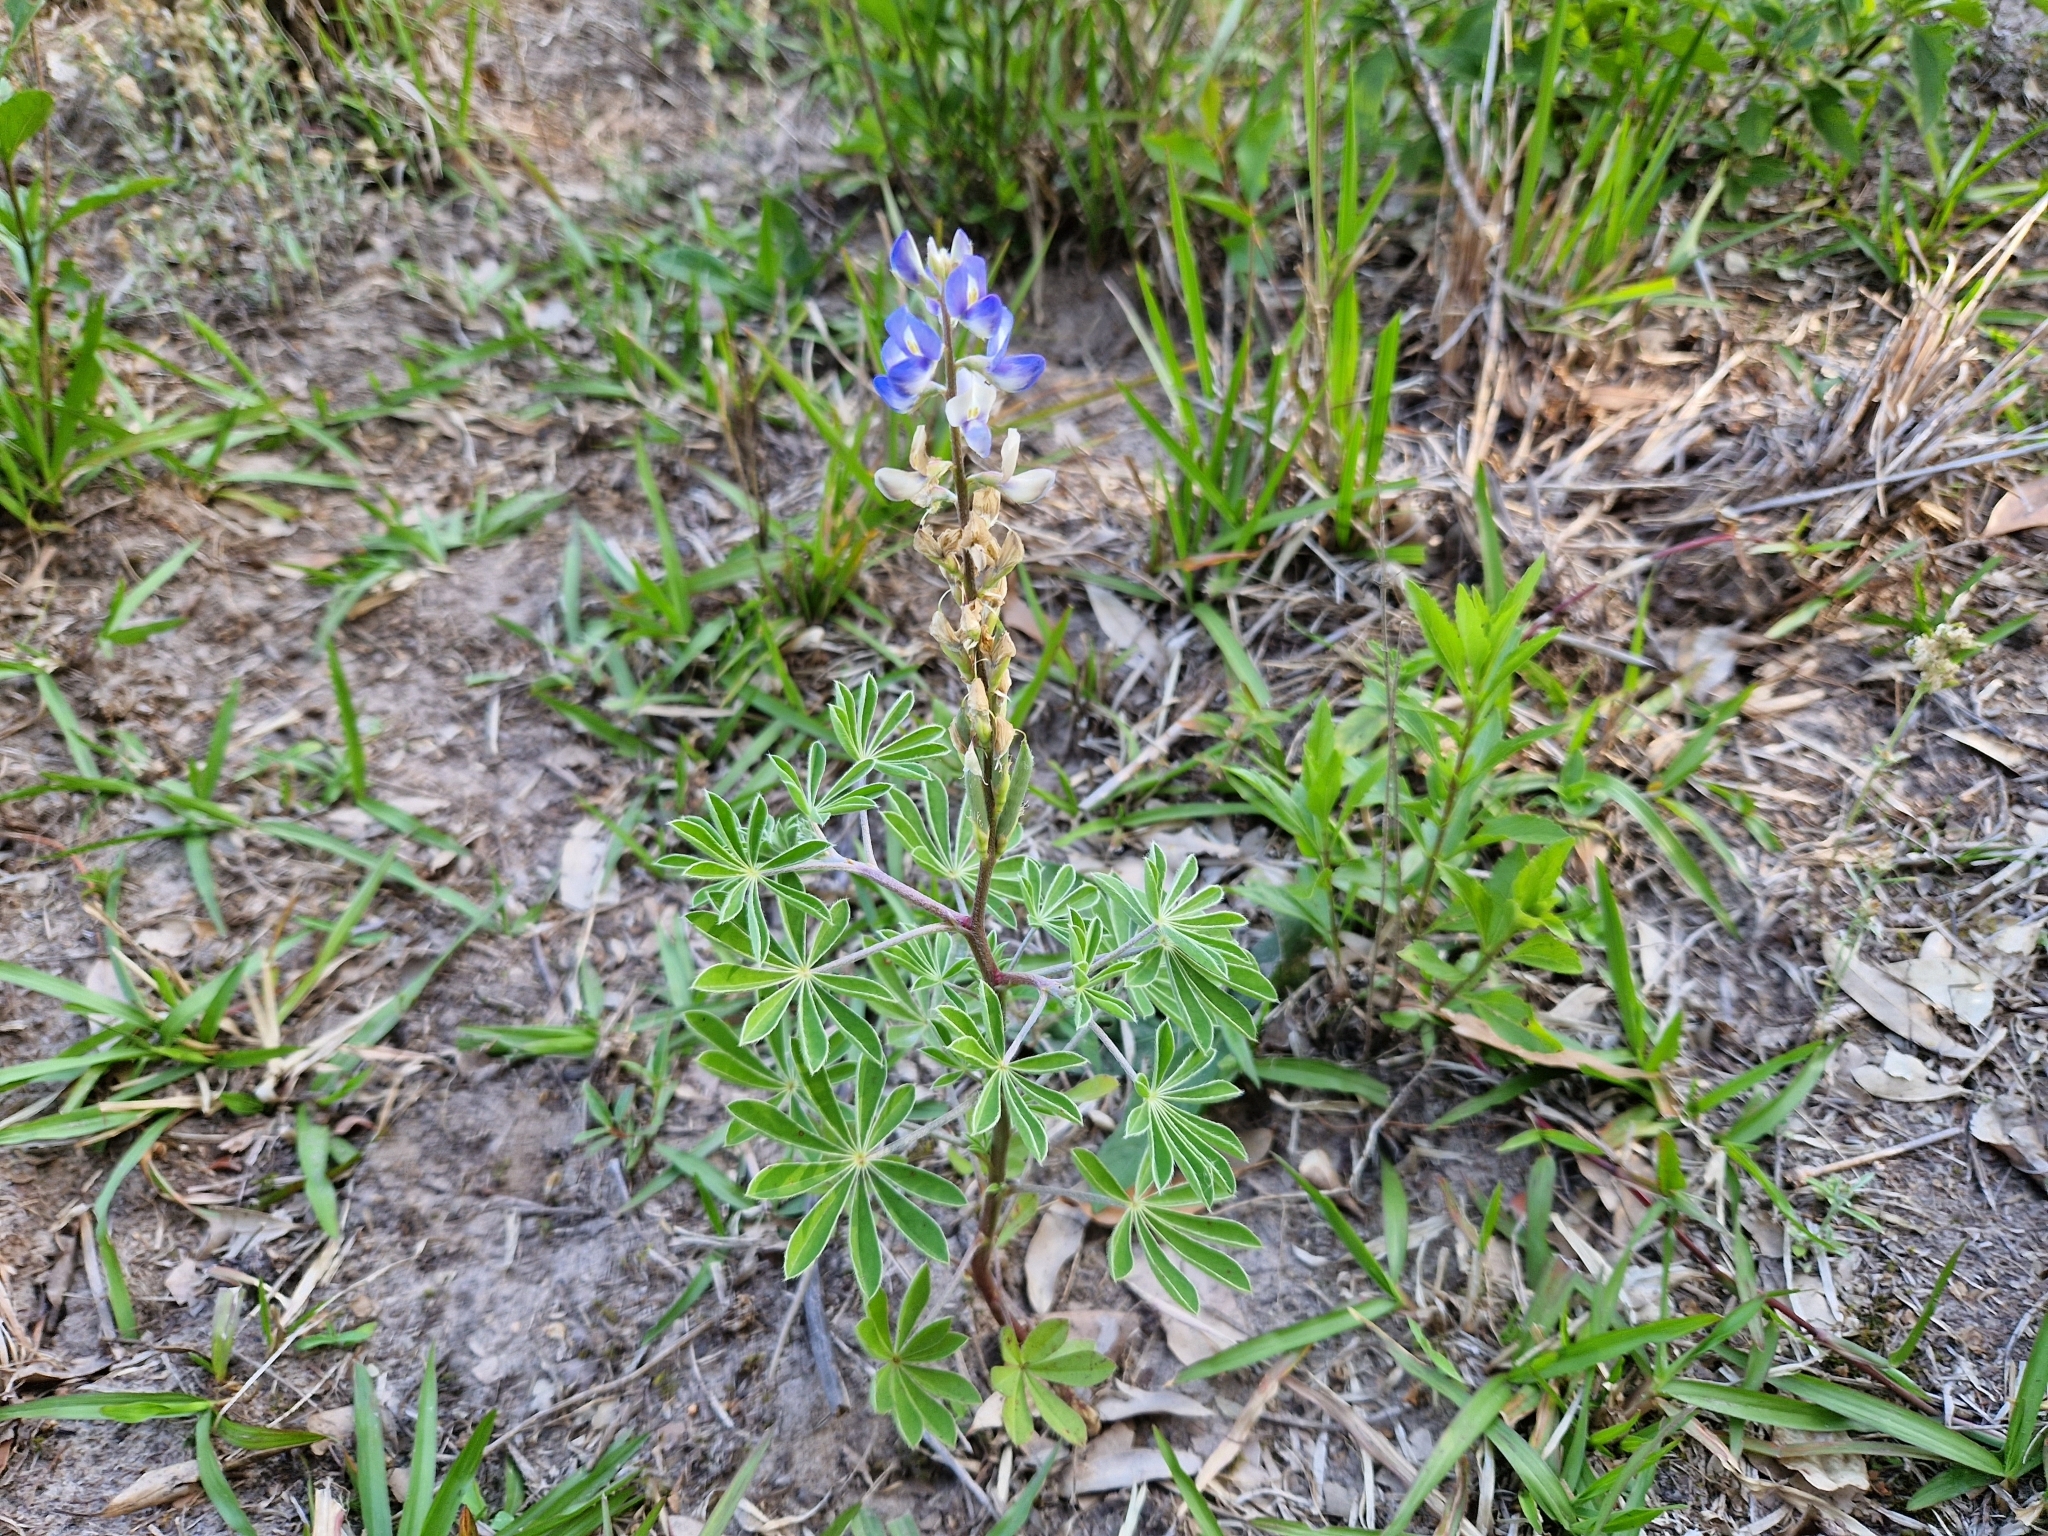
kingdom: Plantae
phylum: Tracheophyta
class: Magnoliopsida
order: Fabales
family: Fabaceae
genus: Lupinus
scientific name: Lupinus gibertianus
